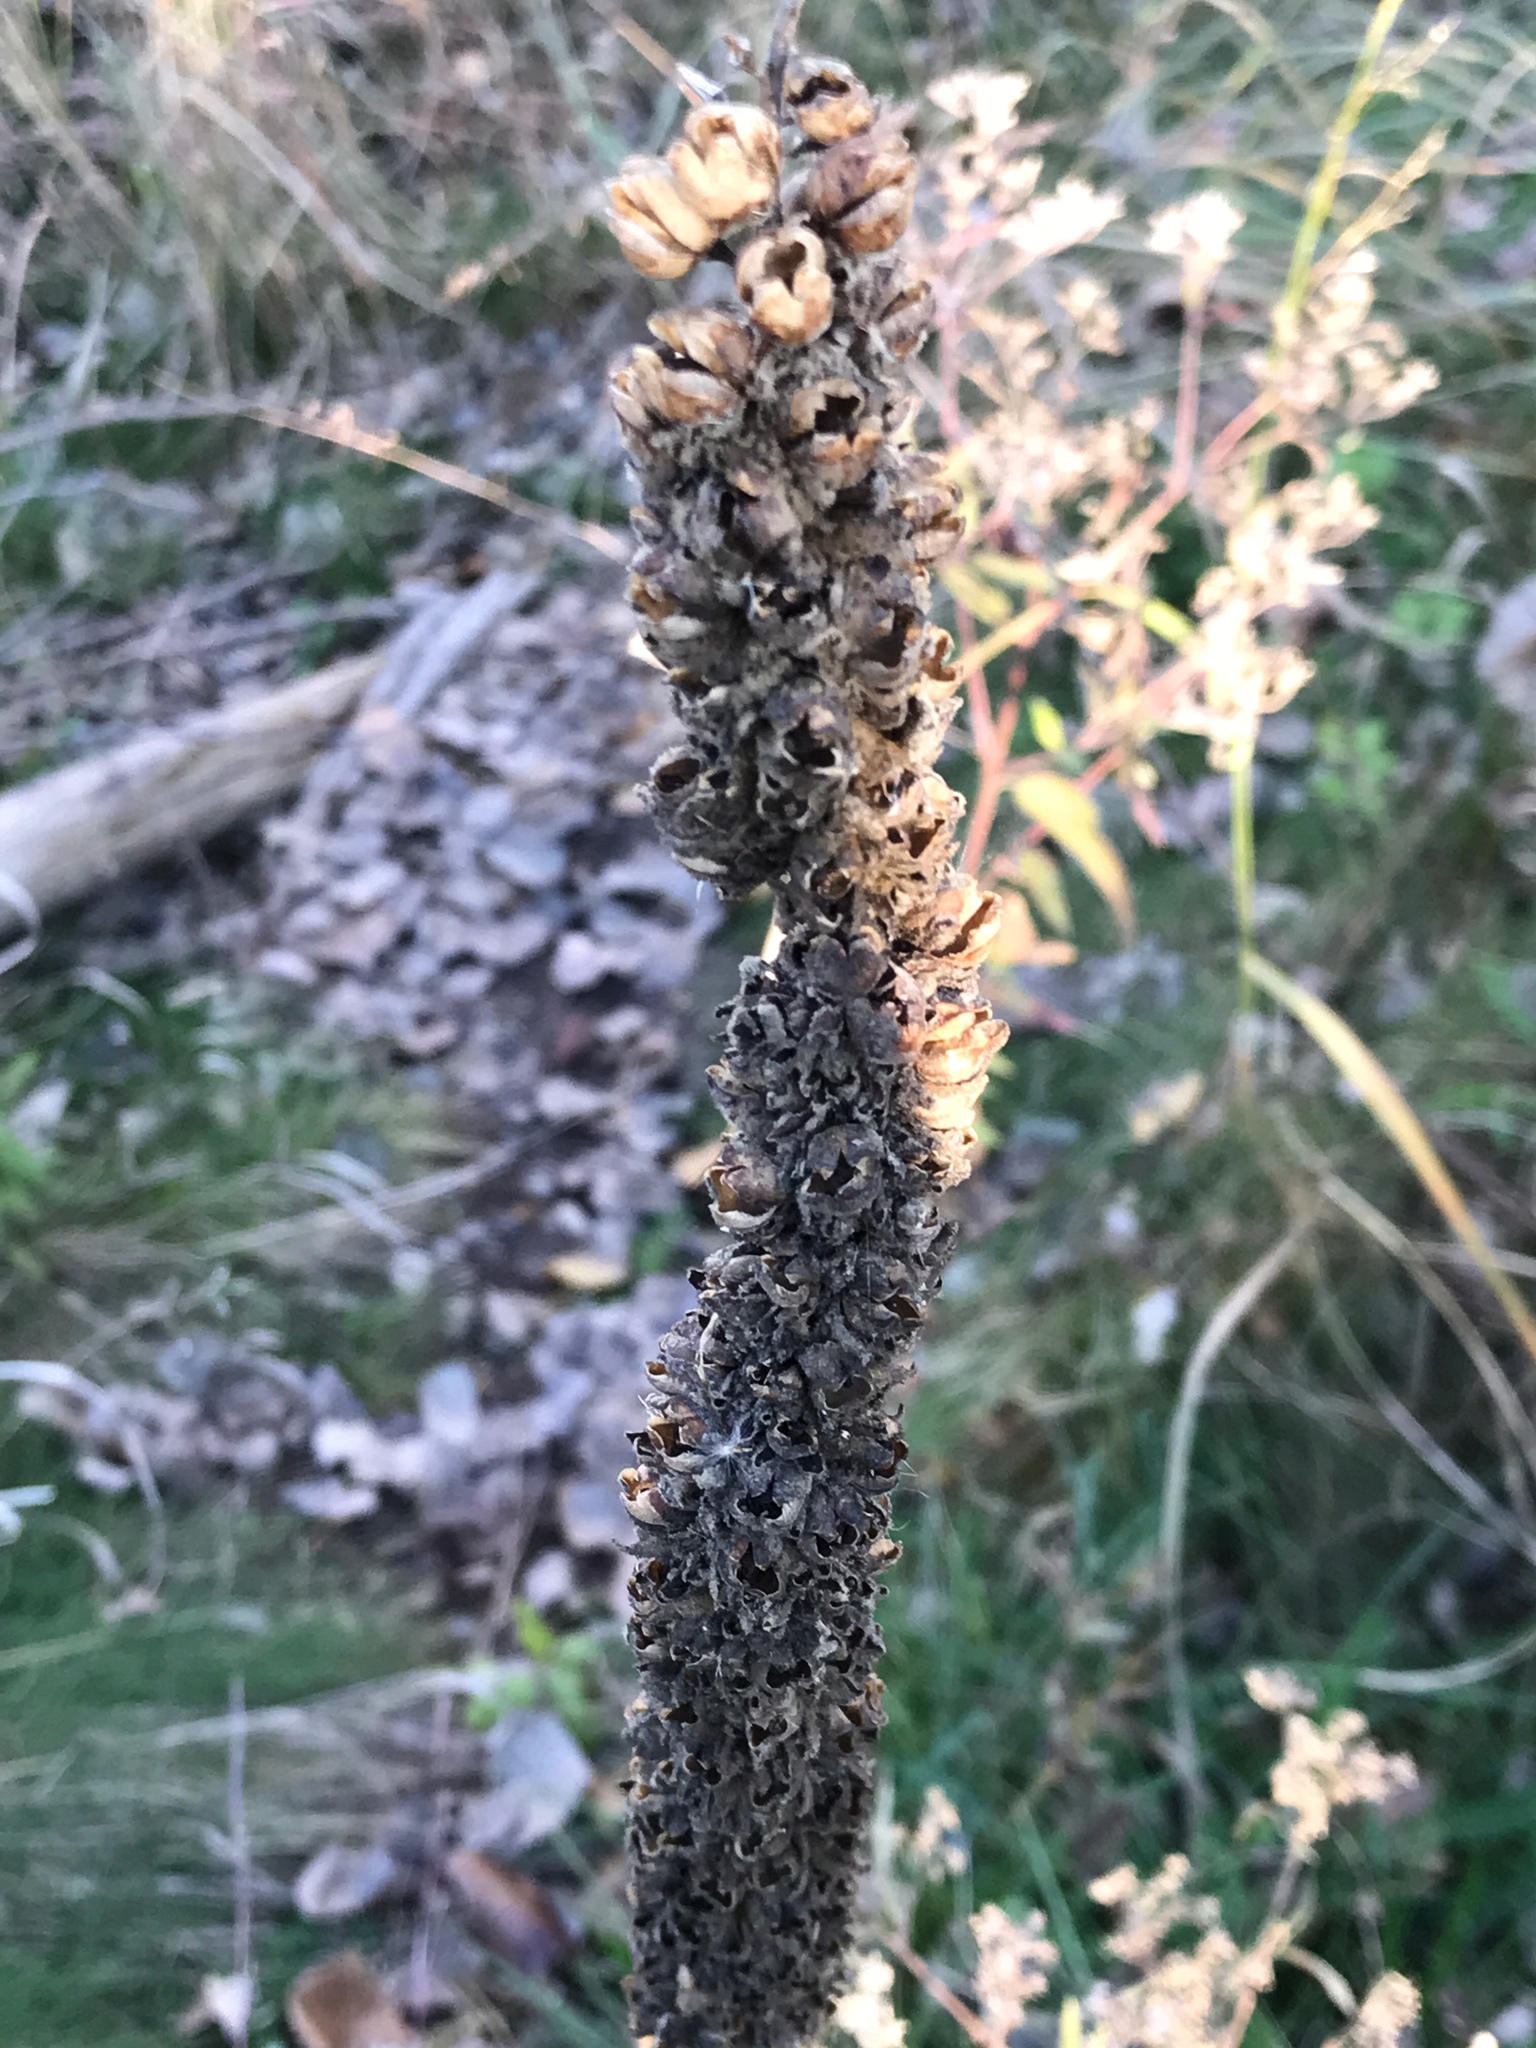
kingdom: Plantae
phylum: Tracheophyta
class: Magnoliopsida
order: Lamiales
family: Scrophulariaceae
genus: Verbascum
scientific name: Verbascum thapsus
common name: Common mullein
